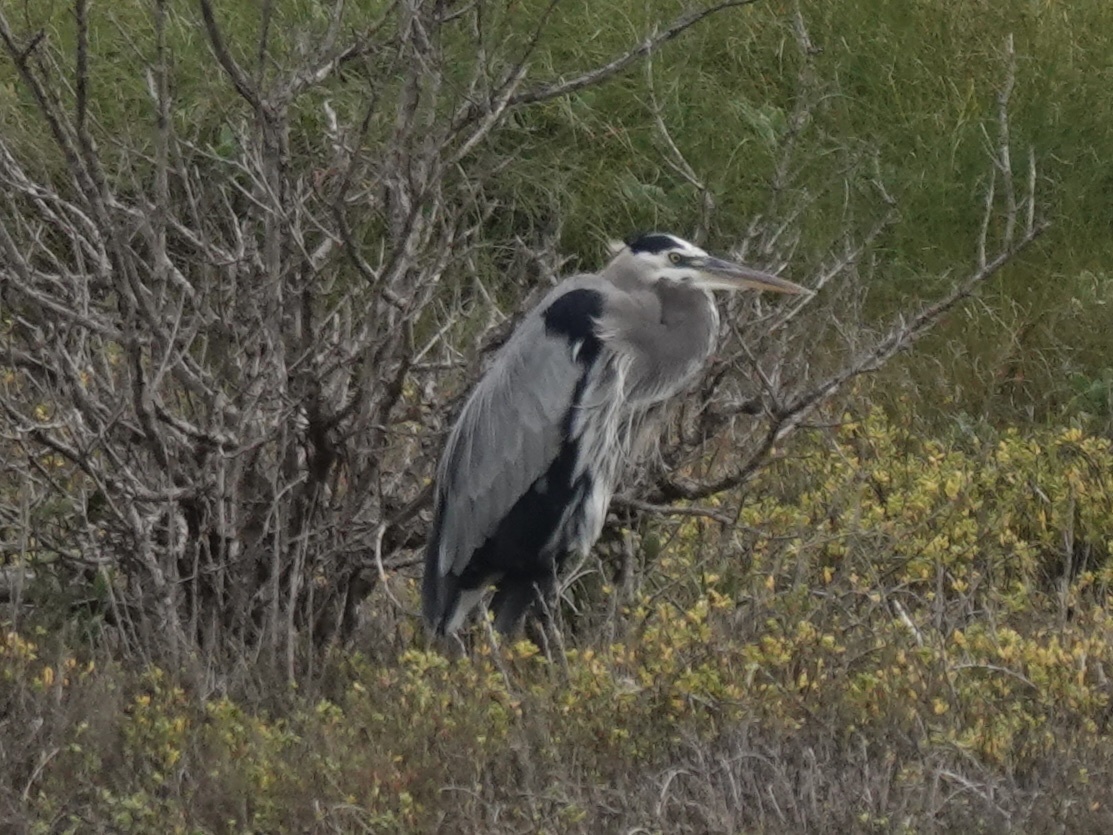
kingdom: Animalia
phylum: Chordata
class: Aves
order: Pelecaniformes
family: Ardeidae
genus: Ardea
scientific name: Ardea herodias
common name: Great blue heron
